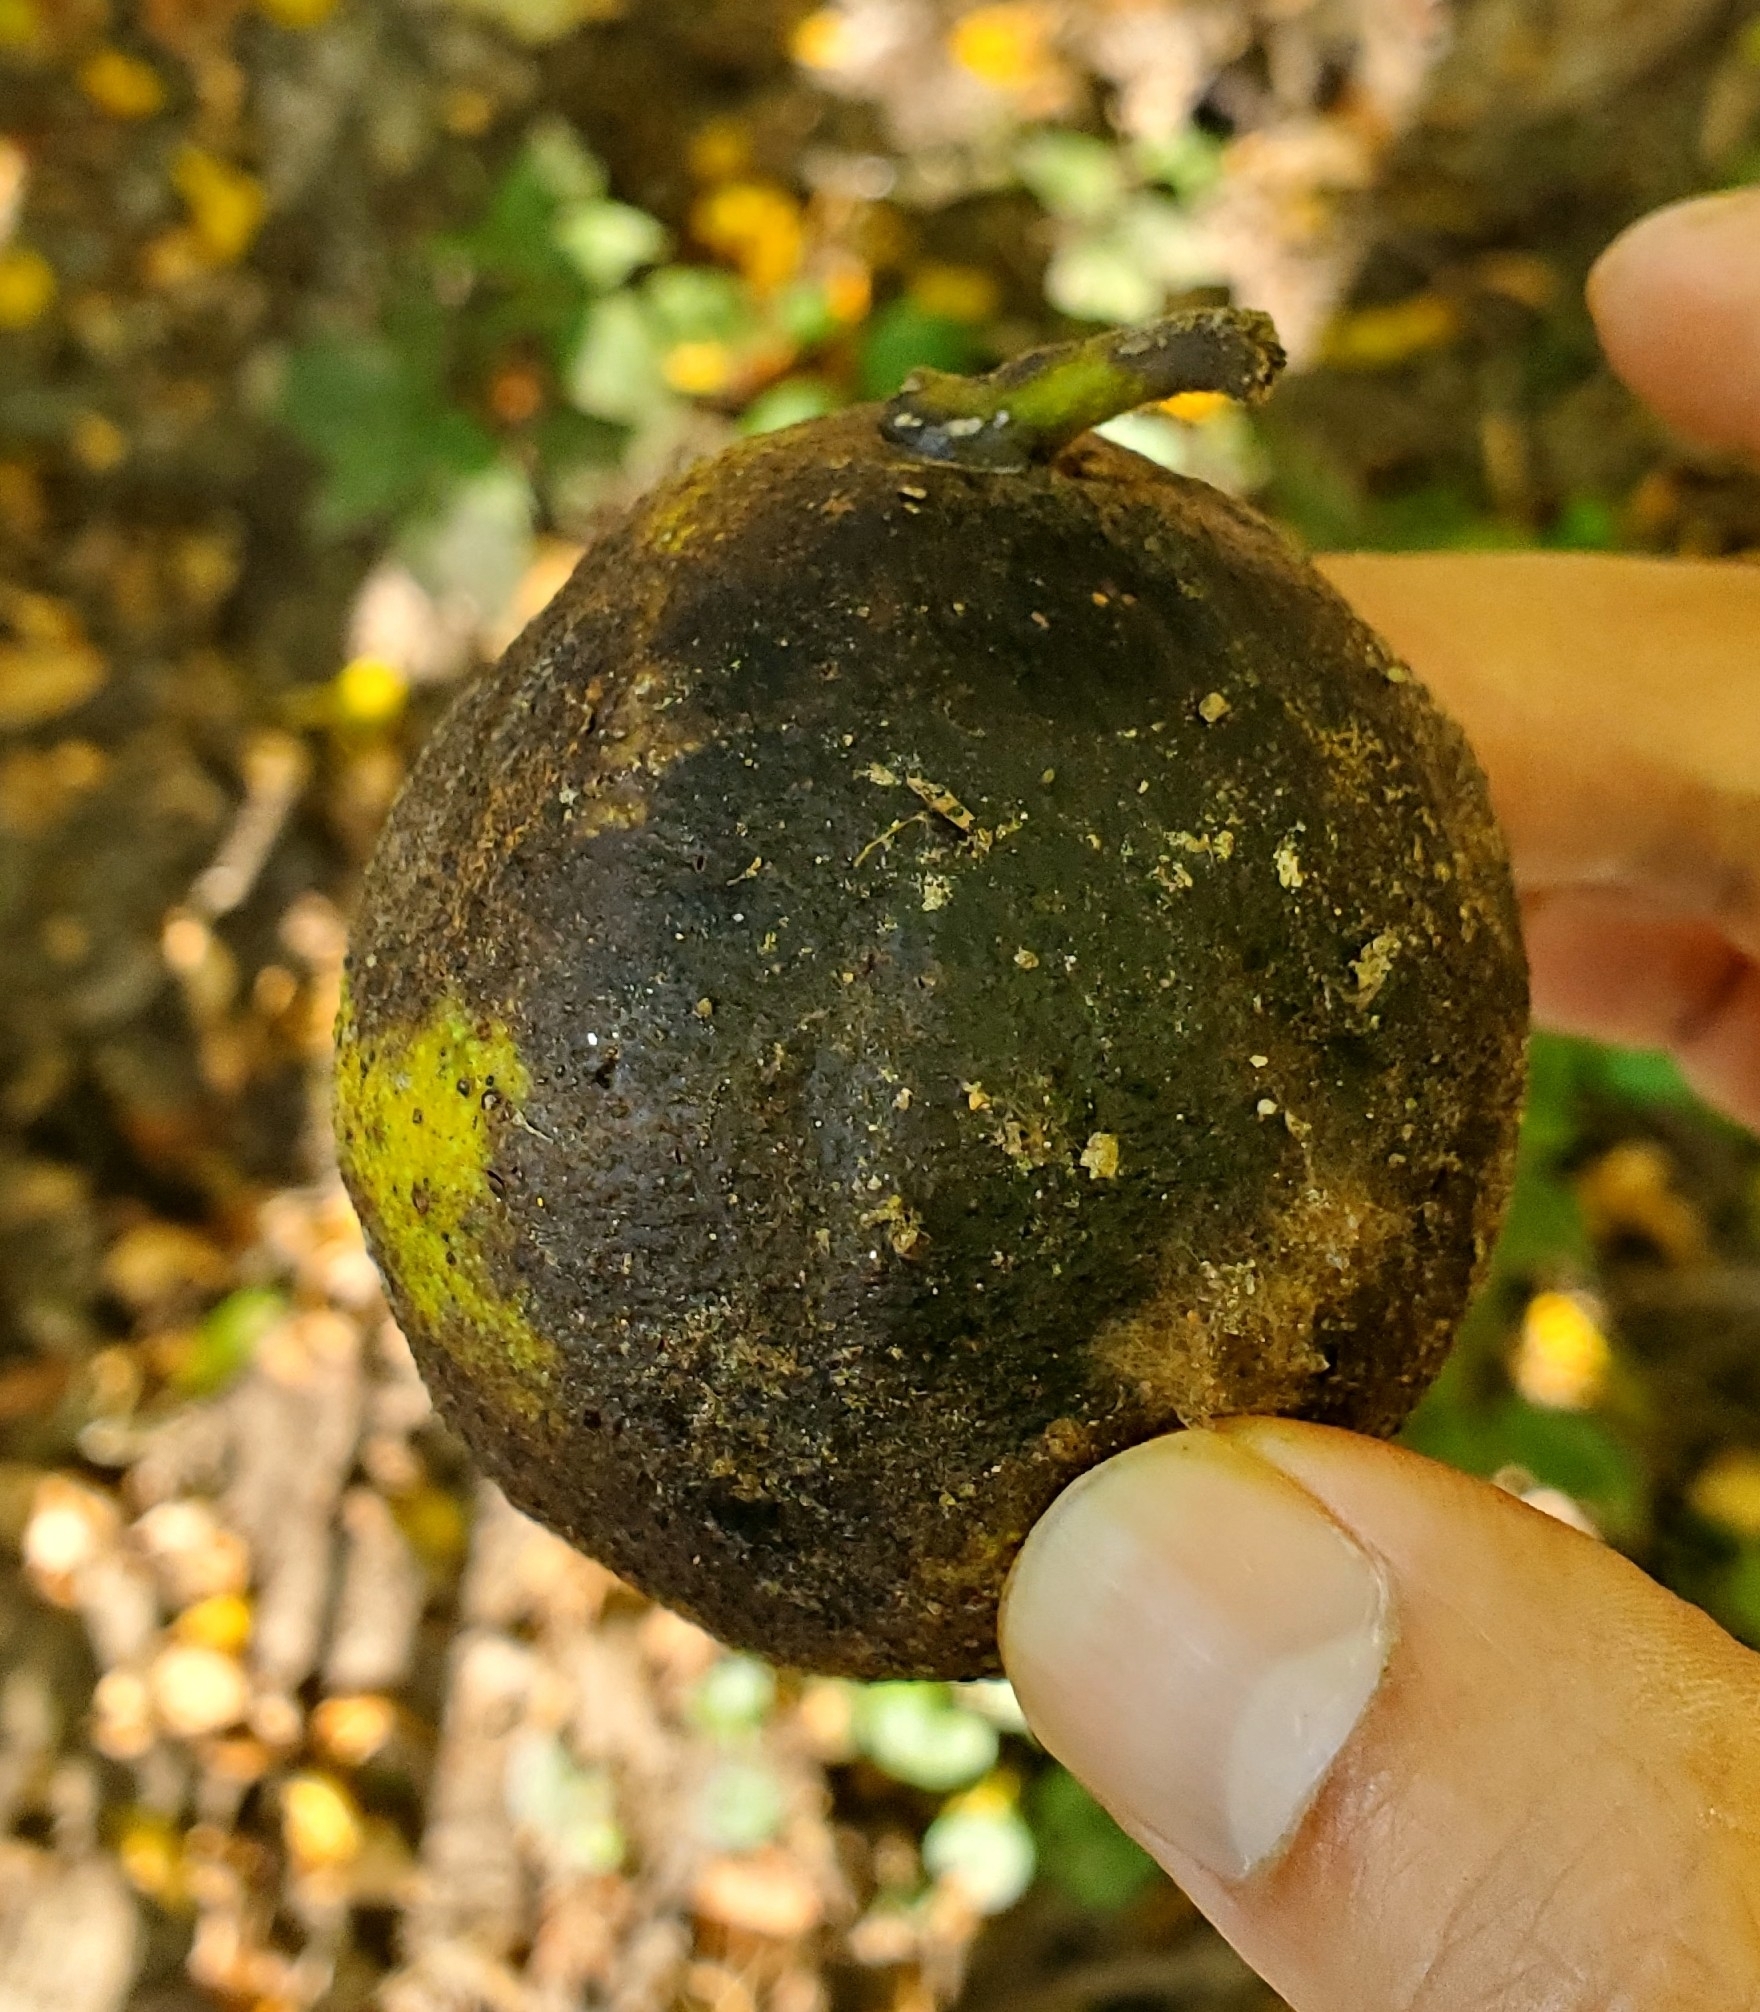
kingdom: Plantae
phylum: Tracheophyta
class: Magnoliopsida
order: Fagales
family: Juglandaceae
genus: Juglans
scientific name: Juglans nigra
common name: Black walnut
